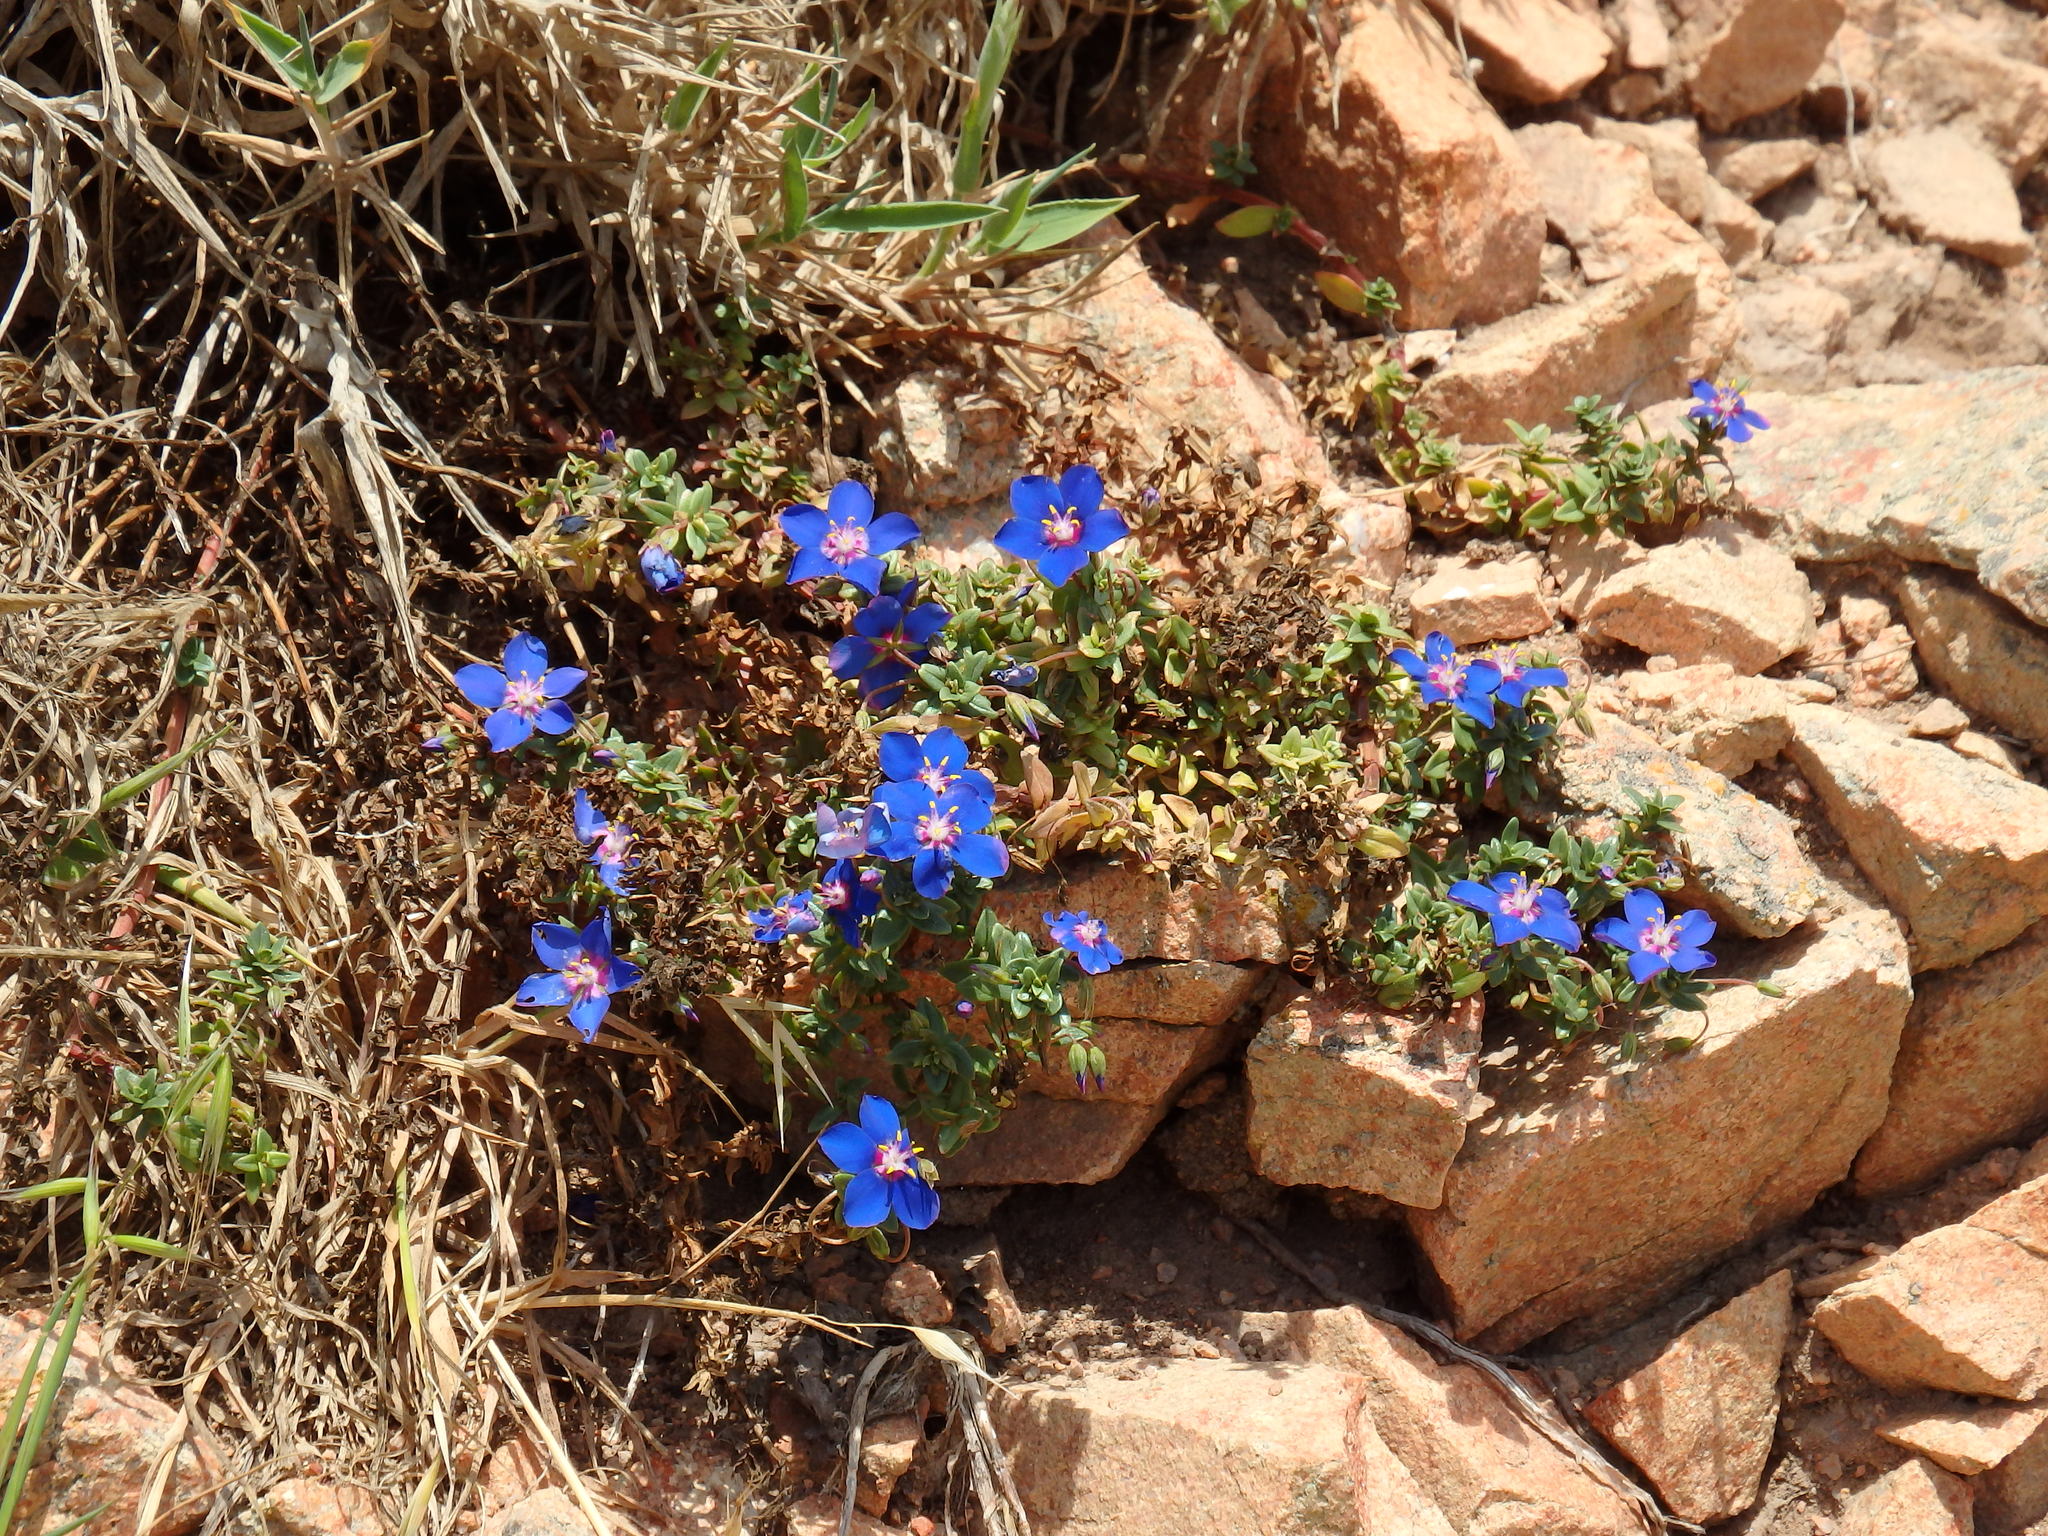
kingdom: Plantae
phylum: Tracheophyta
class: Magnoliopsida
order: Ericales
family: Primulaceae
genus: Lysimachia
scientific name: Lysimachia monelli
